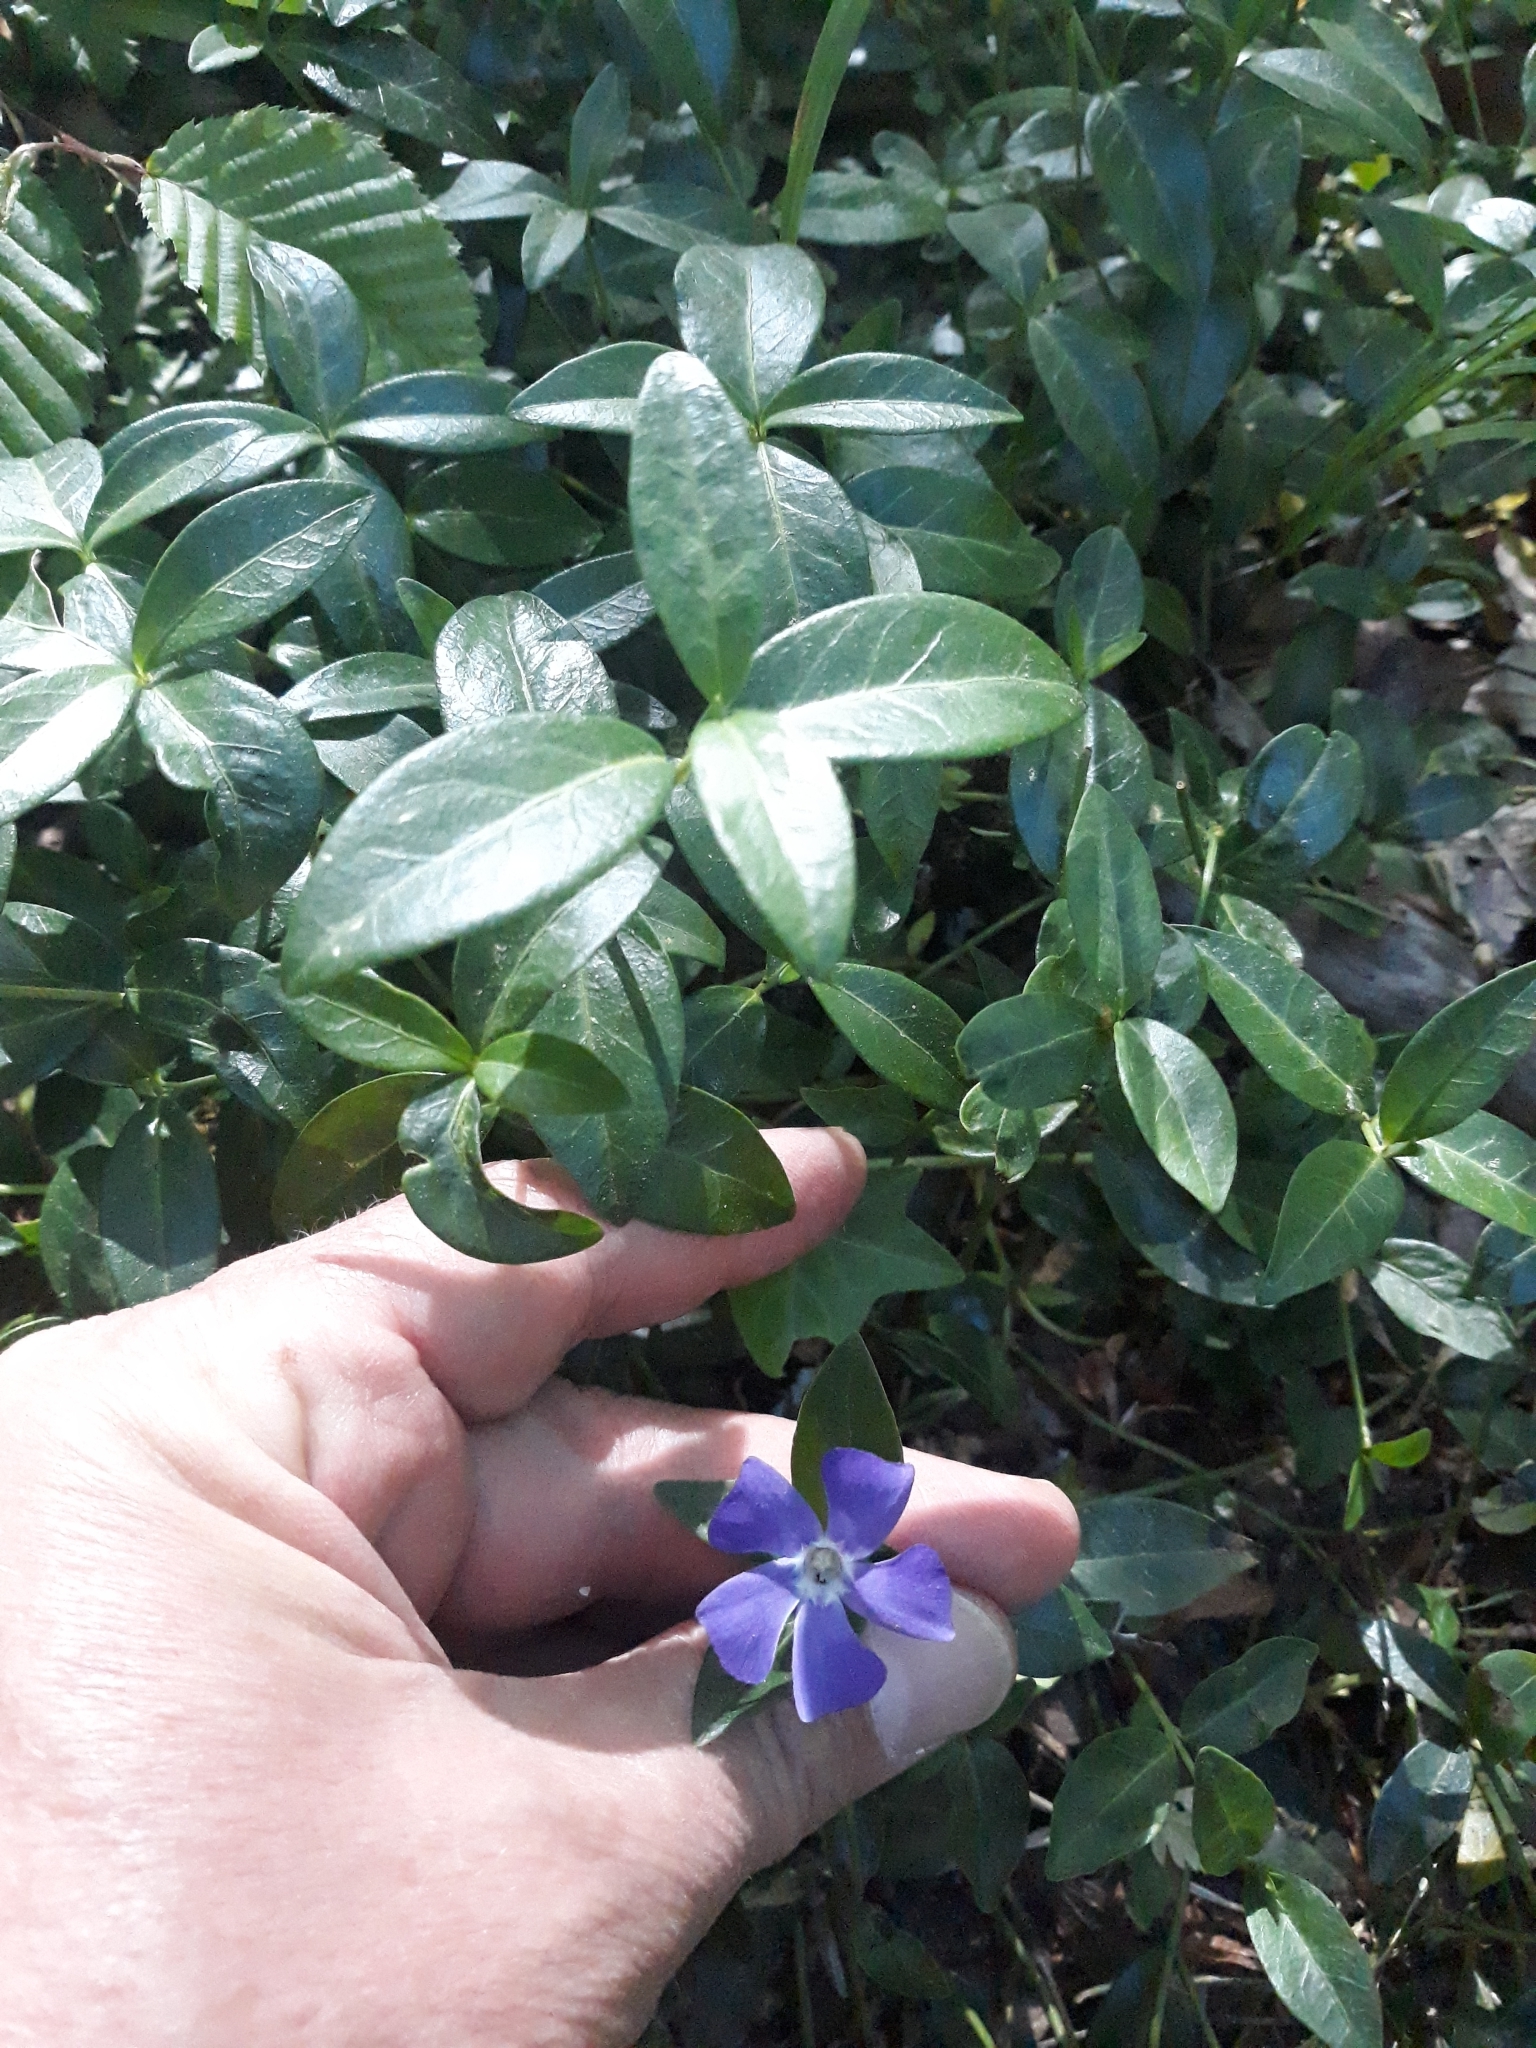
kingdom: Plantae
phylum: Tracheophyta
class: Magnoliopsida
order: Gentianales
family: Apocynaceae
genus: Vinca
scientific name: Vinca minor
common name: Lesser periwinkle
